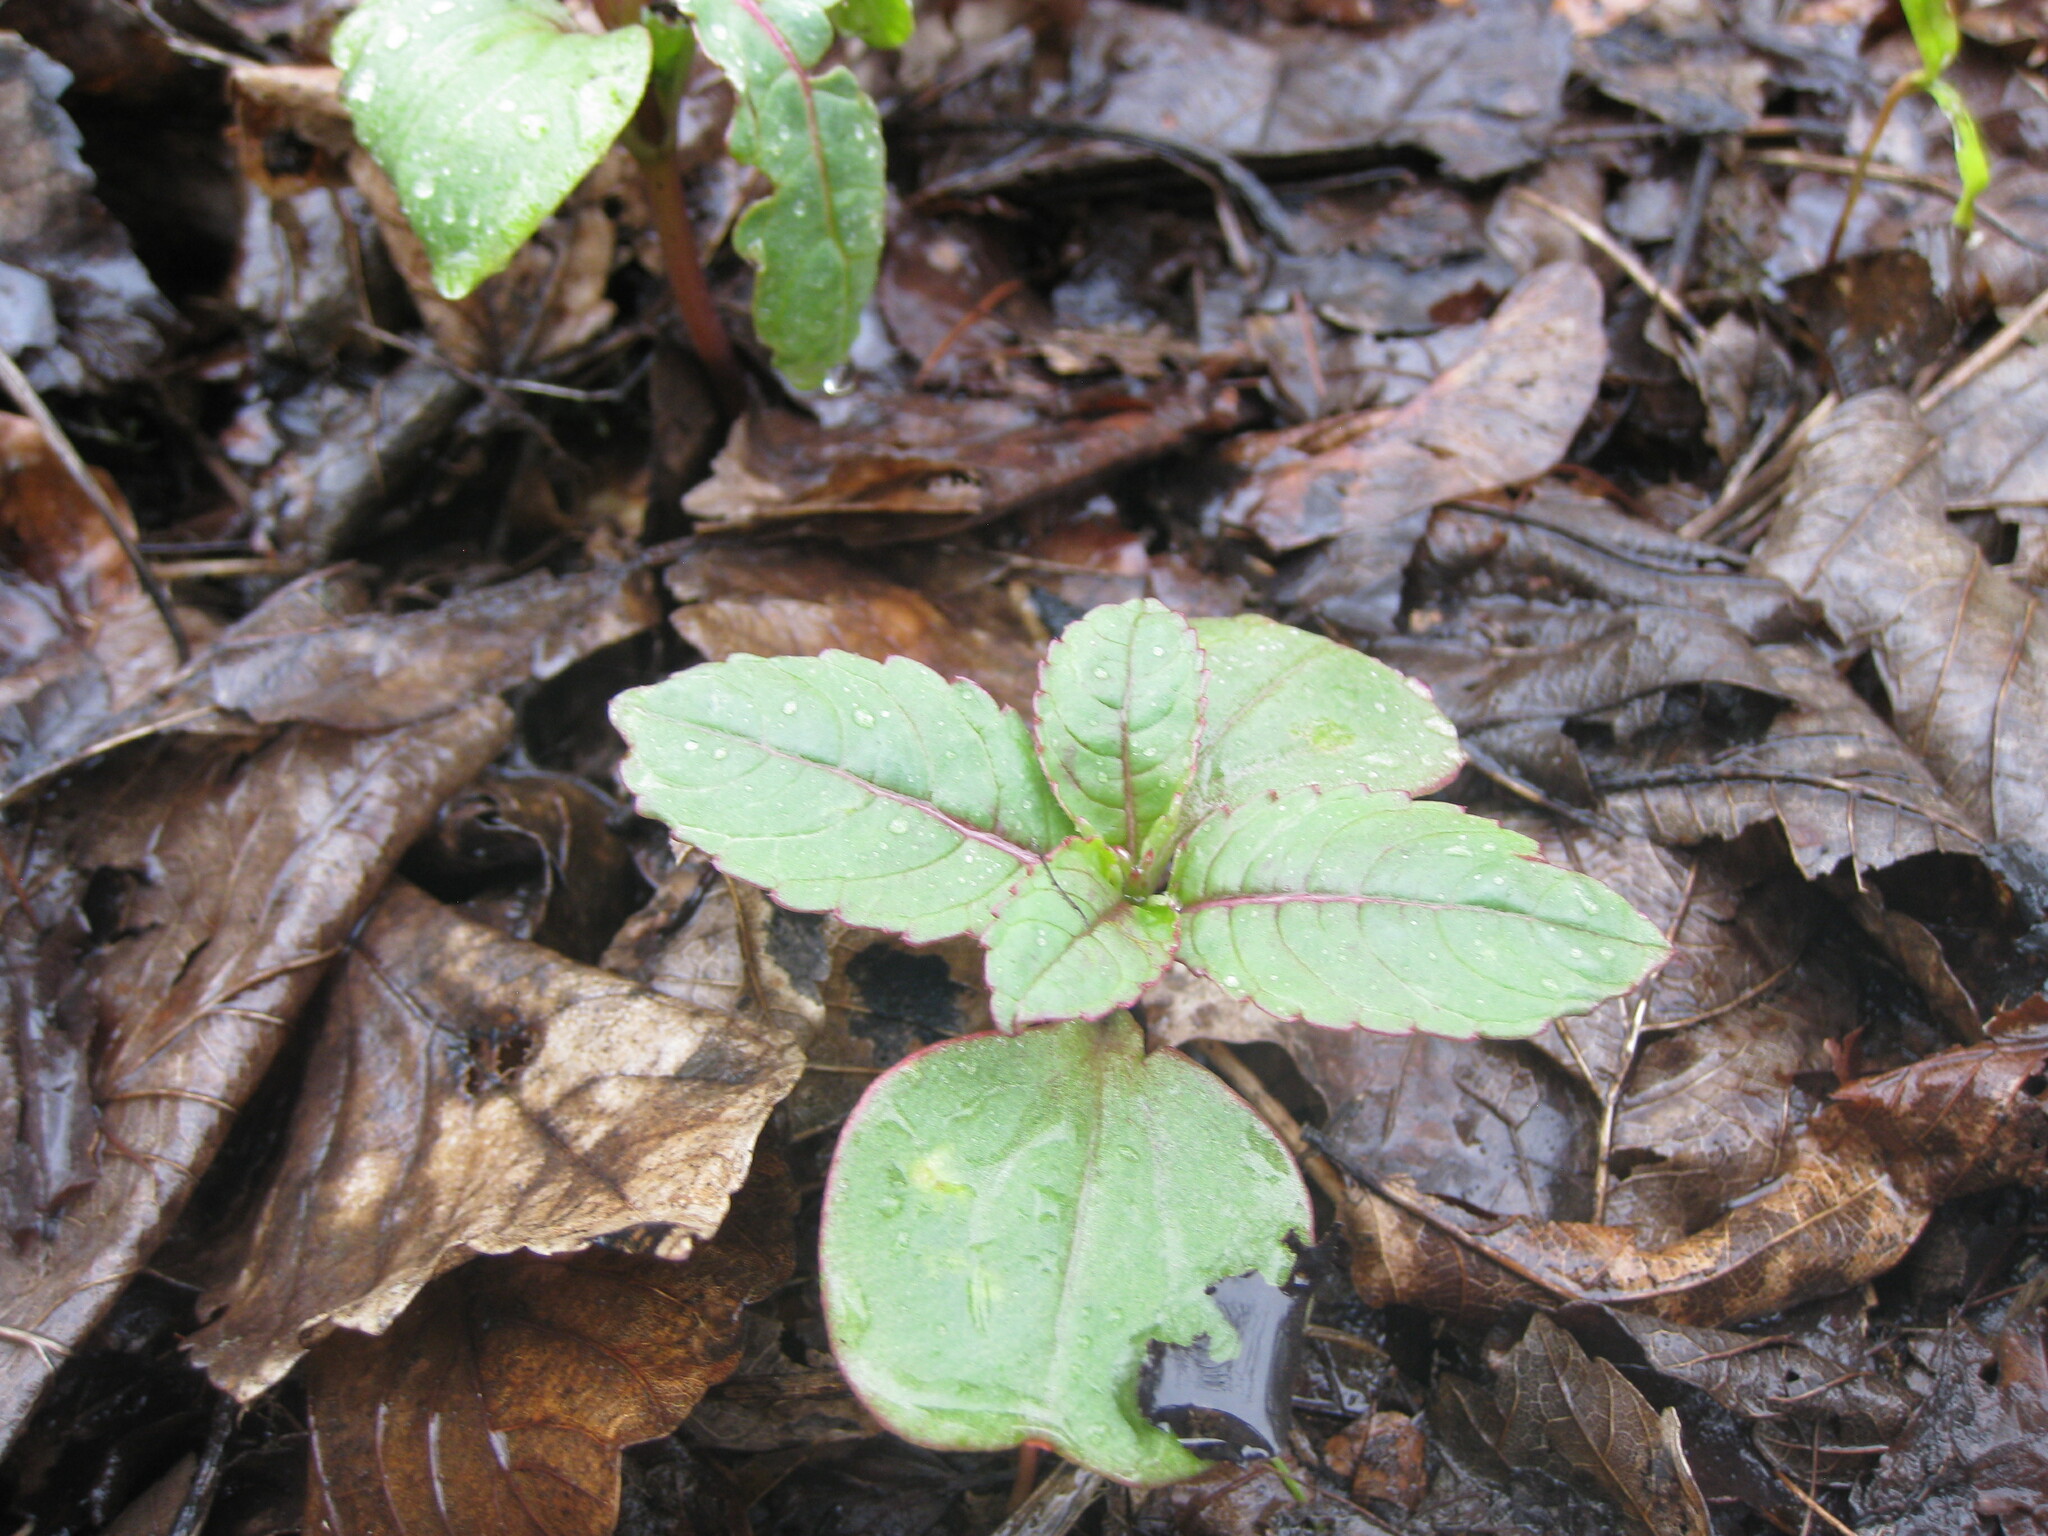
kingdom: Plantae
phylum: Tracheophyta
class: Magnoliopsida
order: Ericales
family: Balsaminaceae
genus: Impatiens
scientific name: Impatiens glandulifera
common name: Himalayan balsam
